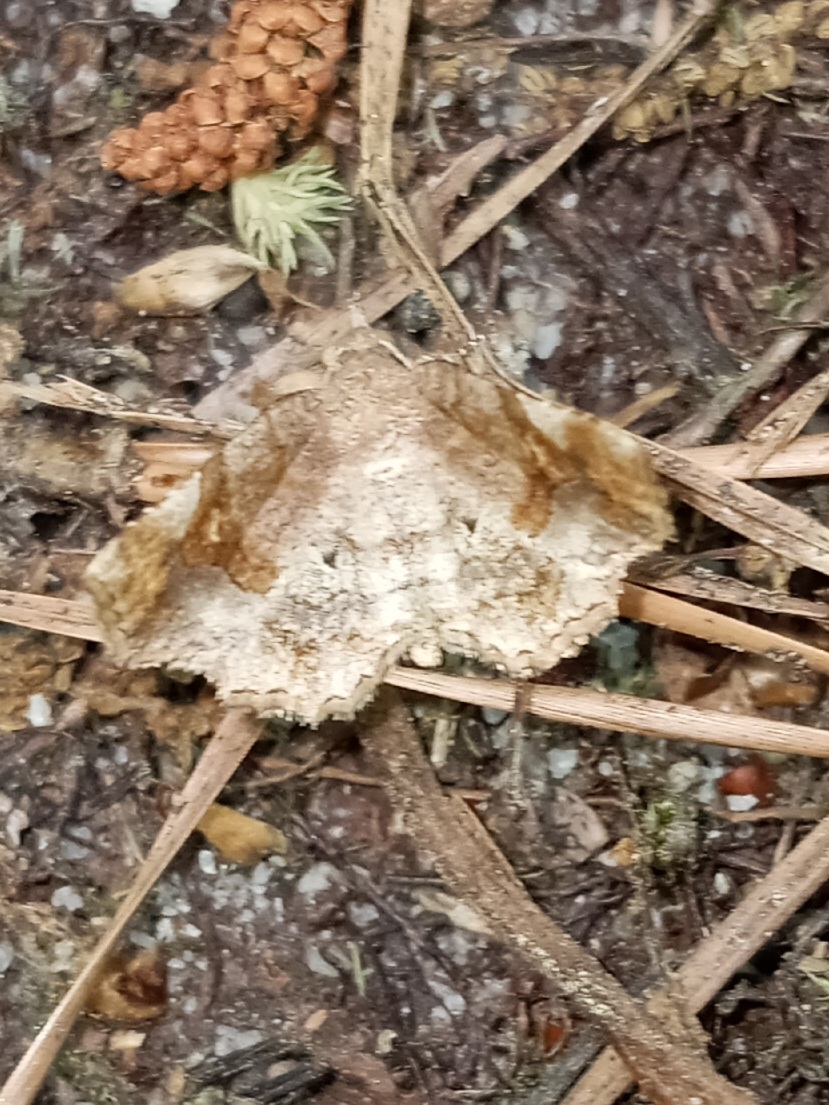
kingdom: Animalia
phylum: Arthropoda
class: Insecta
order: Lepidoptera
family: Erebidae
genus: Pangrapta
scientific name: Pangrapta decoralis
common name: Decorated owlet
